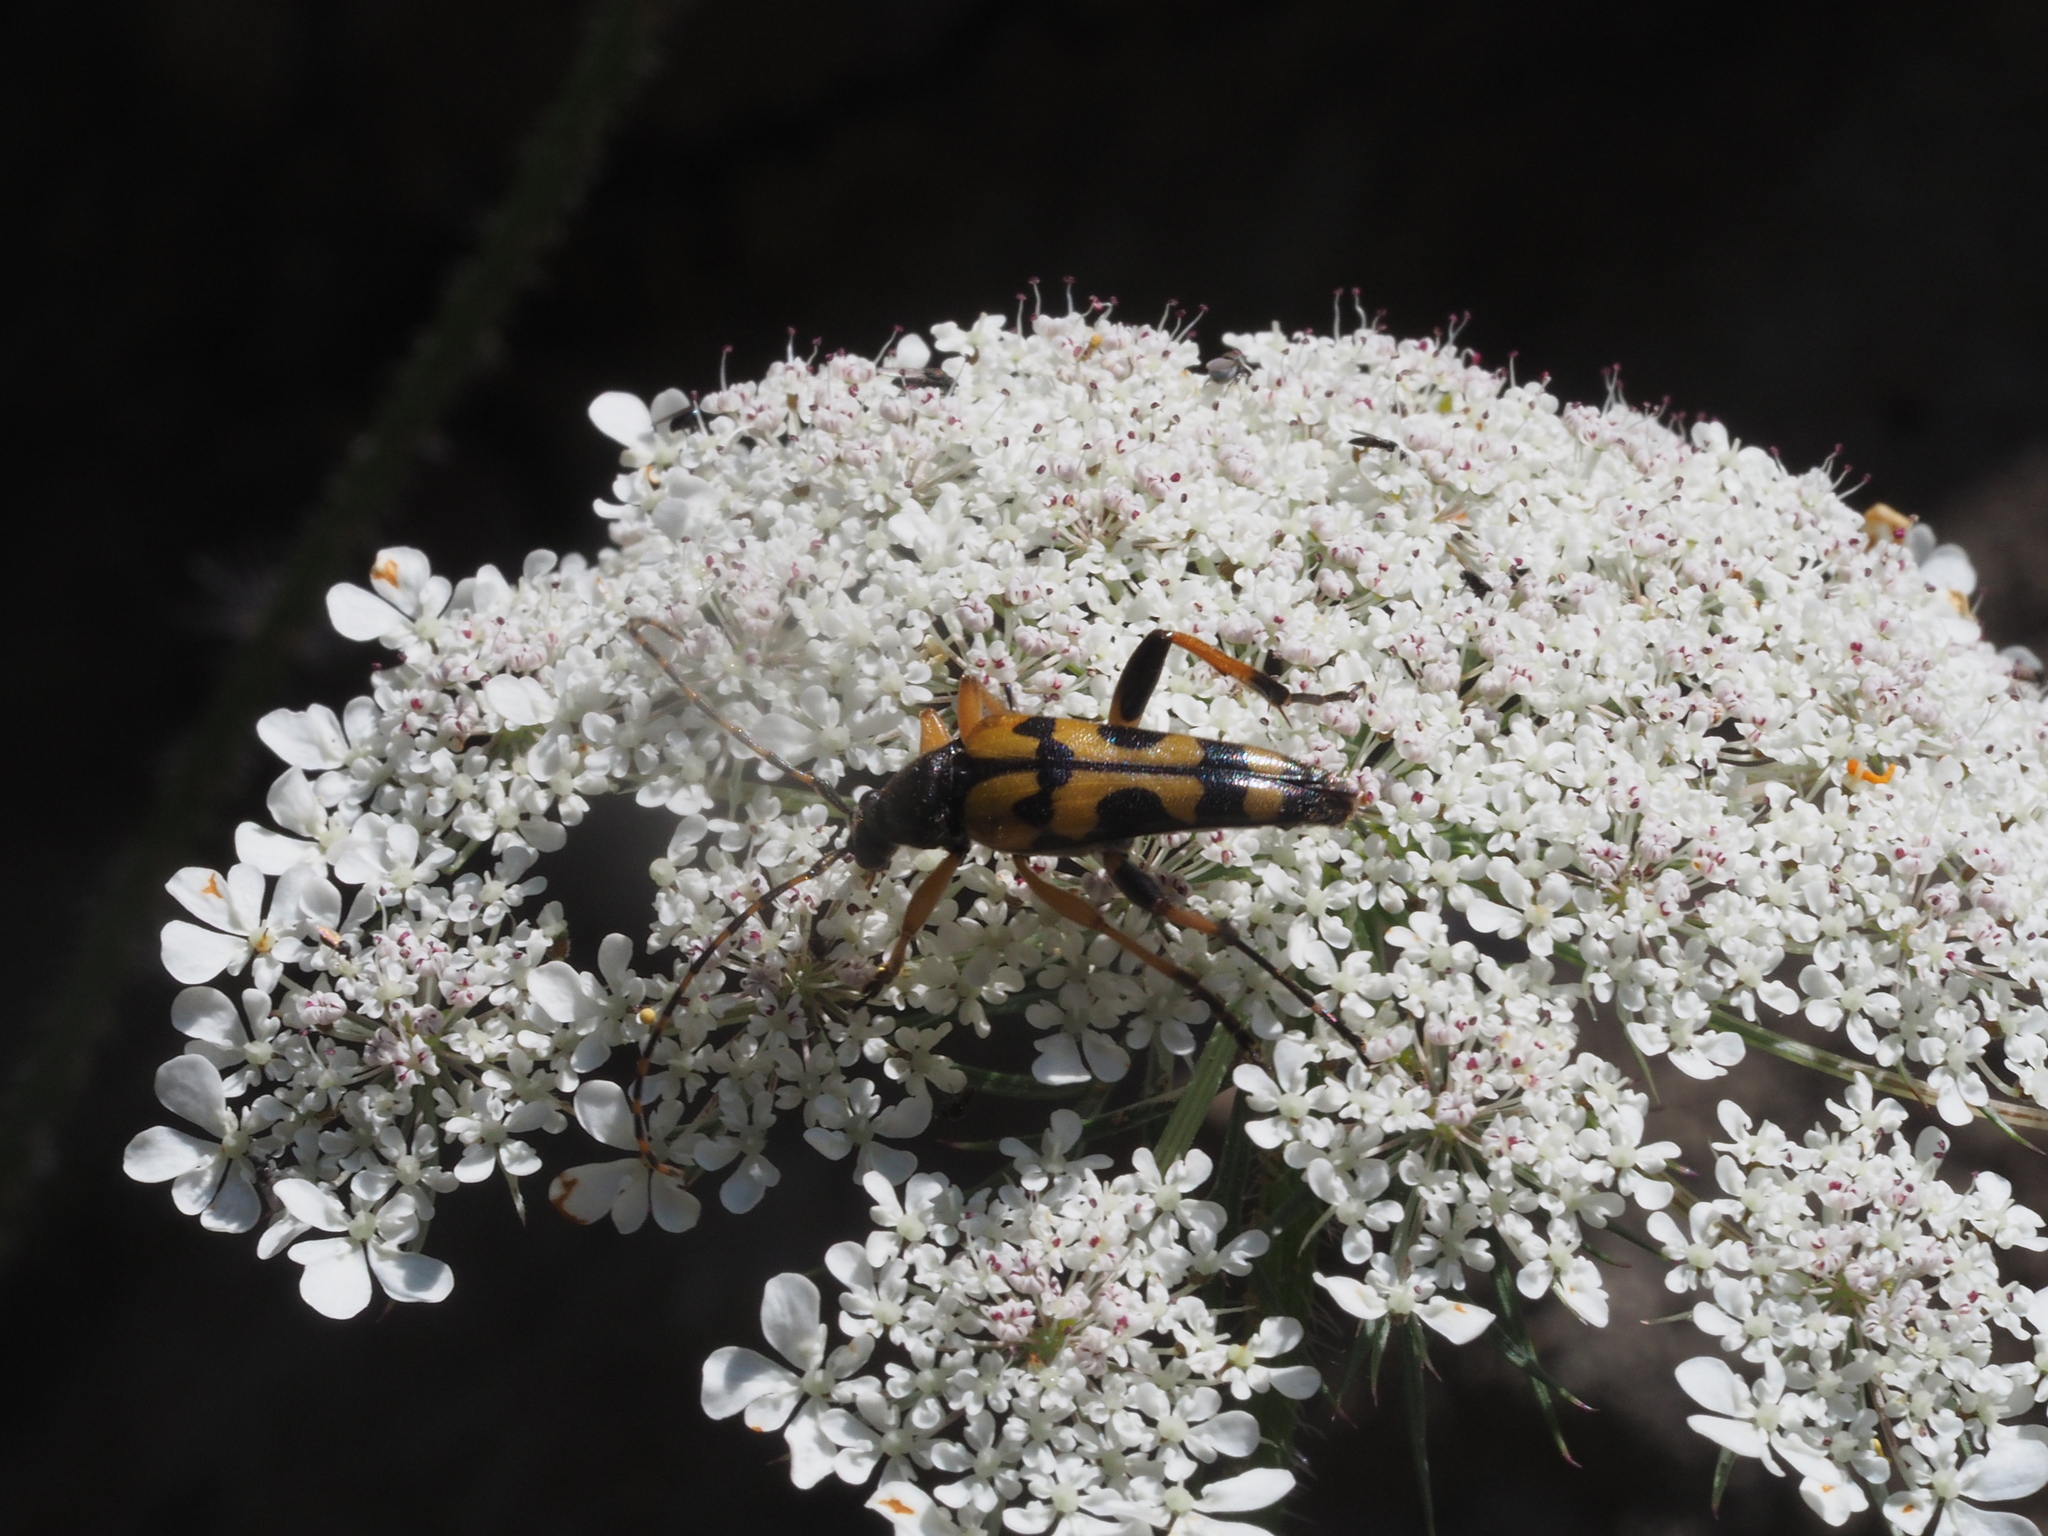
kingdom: Animalia
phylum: Arthropoda
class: Insecta
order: Coleoptera
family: Cerambycidae
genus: Rutpela
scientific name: Rutpela maculata
